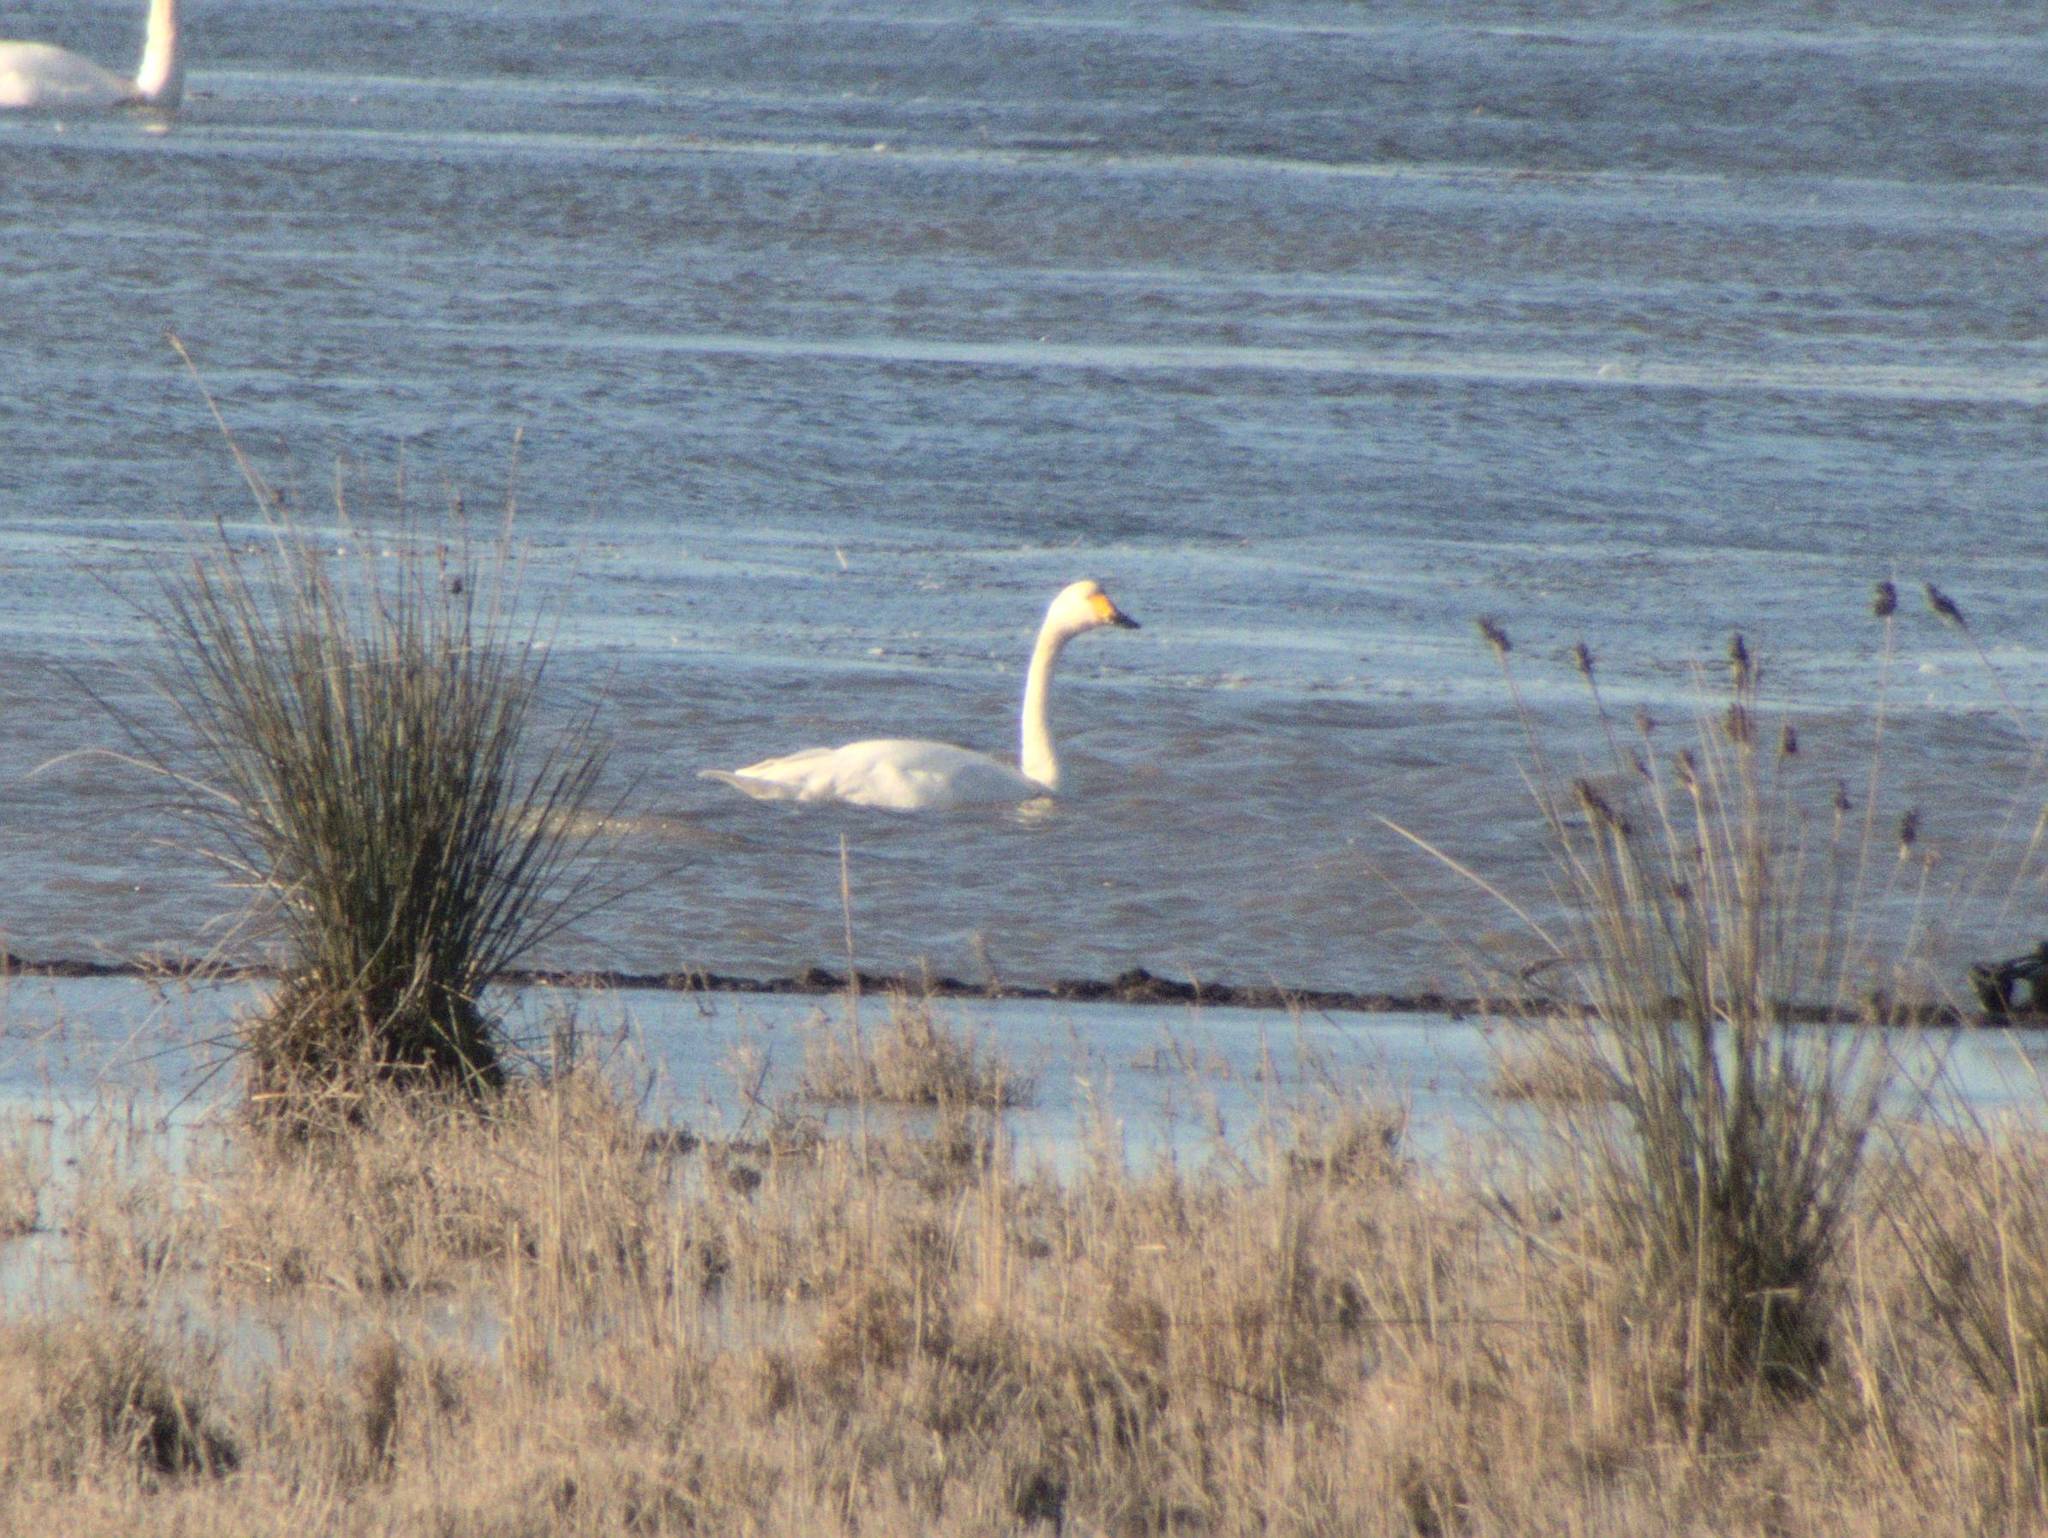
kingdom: Animalia
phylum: Chordata
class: Aves
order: Anseriformes
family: Anatidae
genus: Cygnus
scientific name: Cygnus columbianus
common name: Tundra swan
